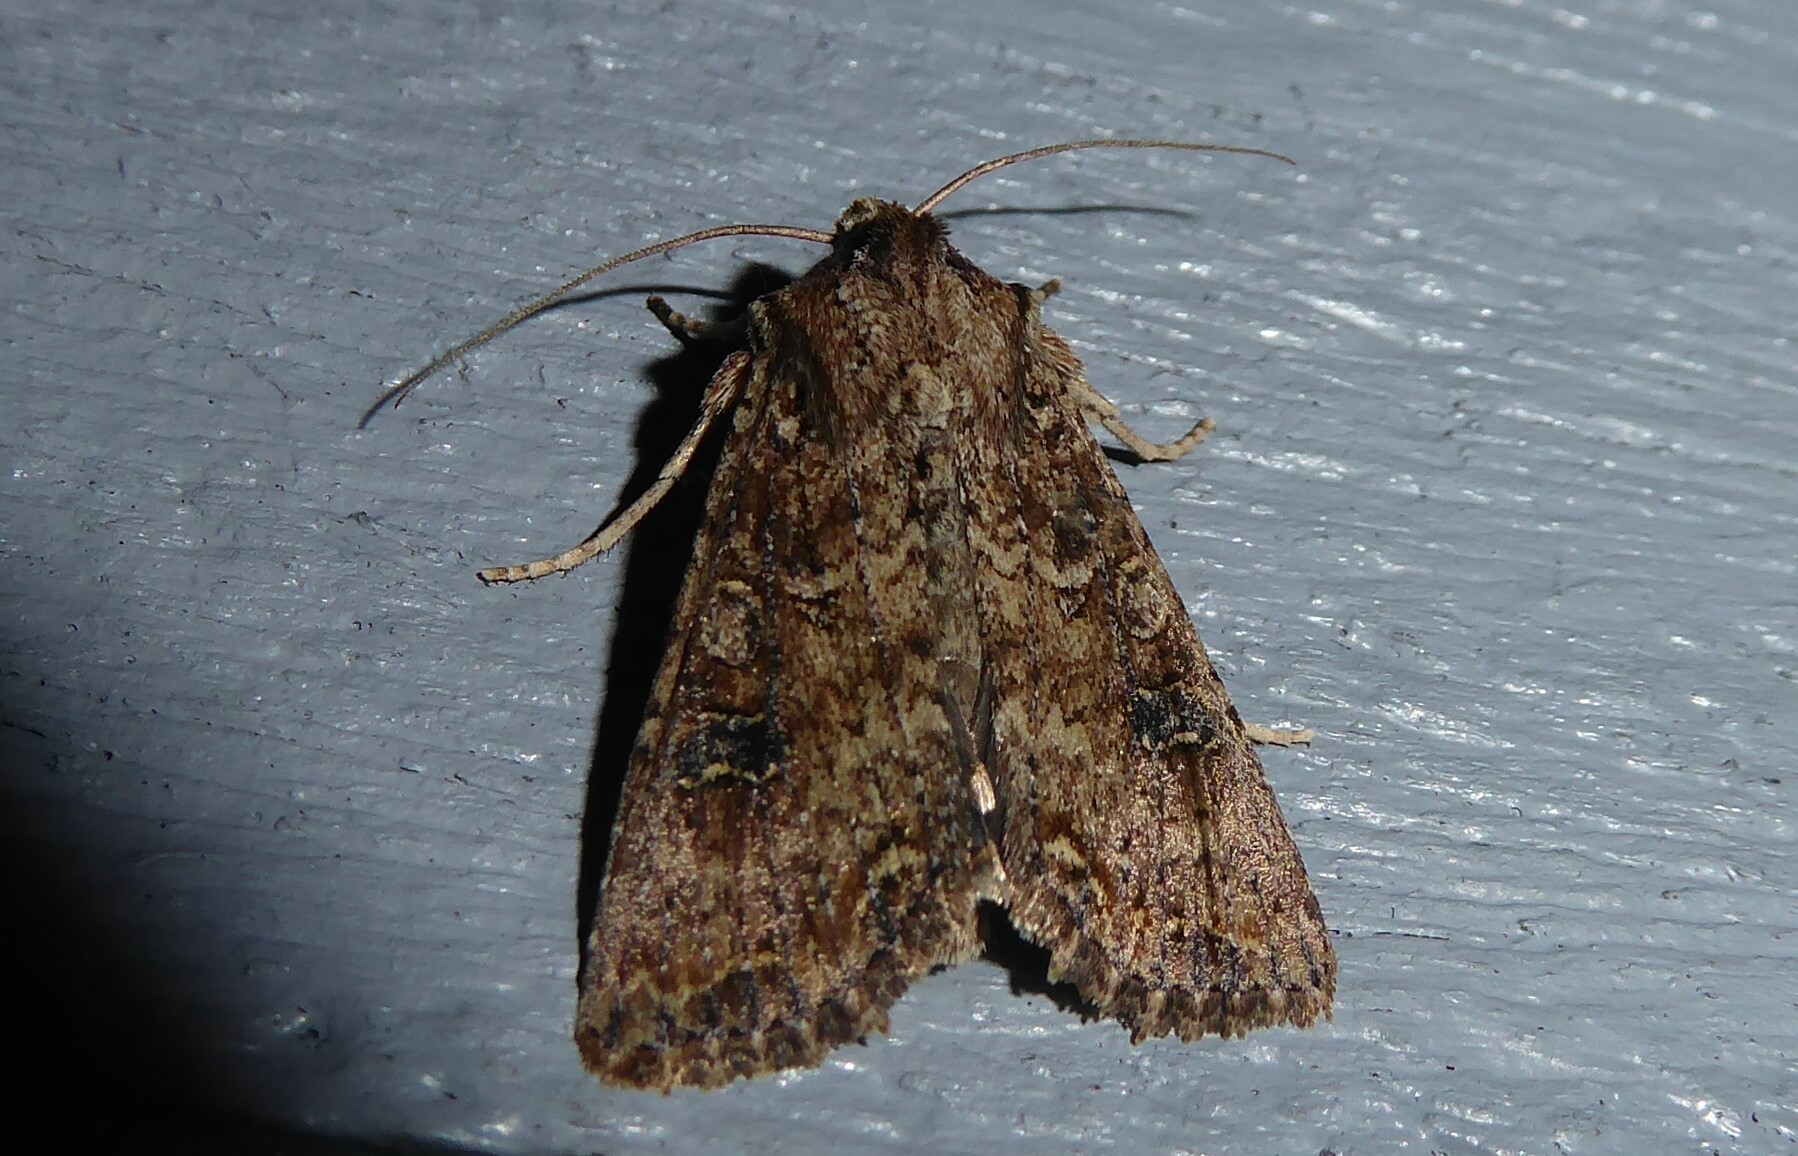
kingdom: Animalia
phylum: Arthropoda
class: Insecta
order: Lepidoptera
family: Noctuidae
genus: Ichneutica
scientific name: Ichneutica morosa
